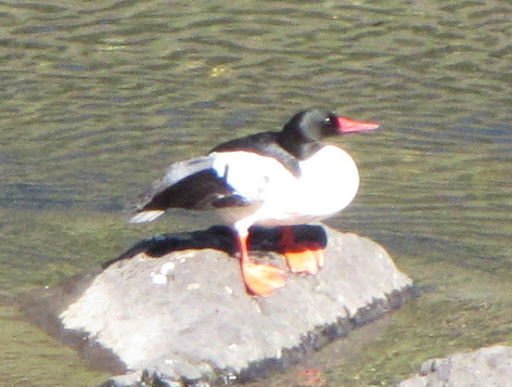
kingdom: Animalia
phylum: Chordata
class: Aves
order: Anseriformes
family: Anatidae
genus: Mergus
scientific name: Mergus merganser
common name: Common merganser
